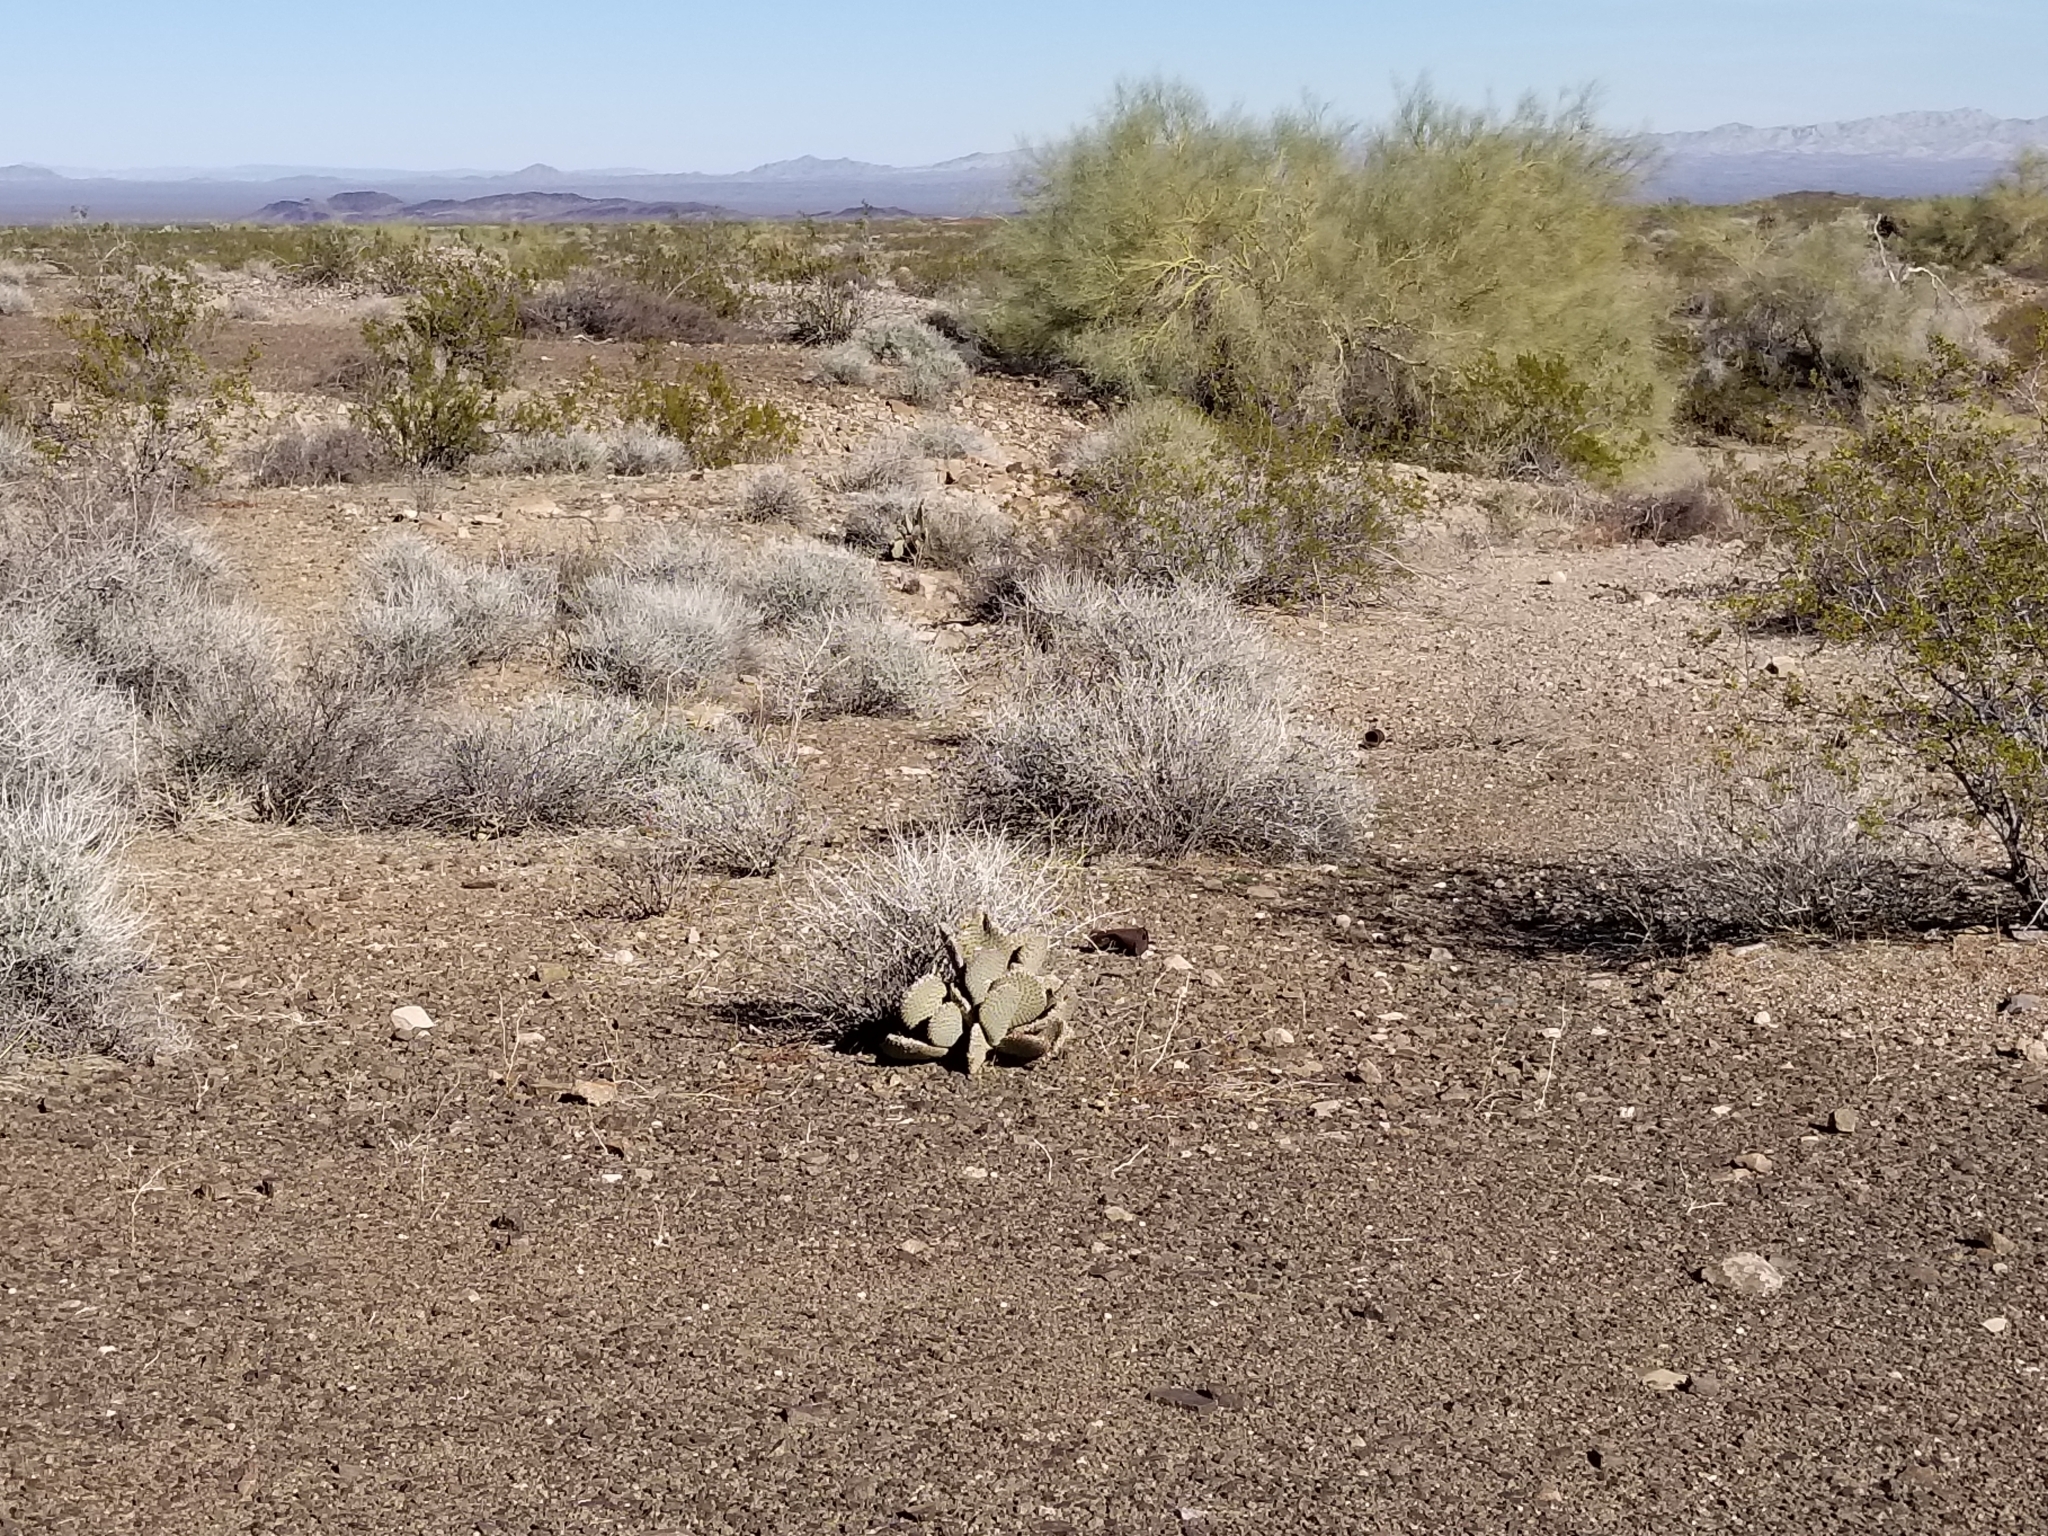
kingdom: Plantae
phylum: Tracheophyta
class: Magnoliopsida
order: Caryophyllales
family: Cactaceae
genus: Opuntia
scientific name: Opuntia basilaris
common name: Beavertail prickly-pear
